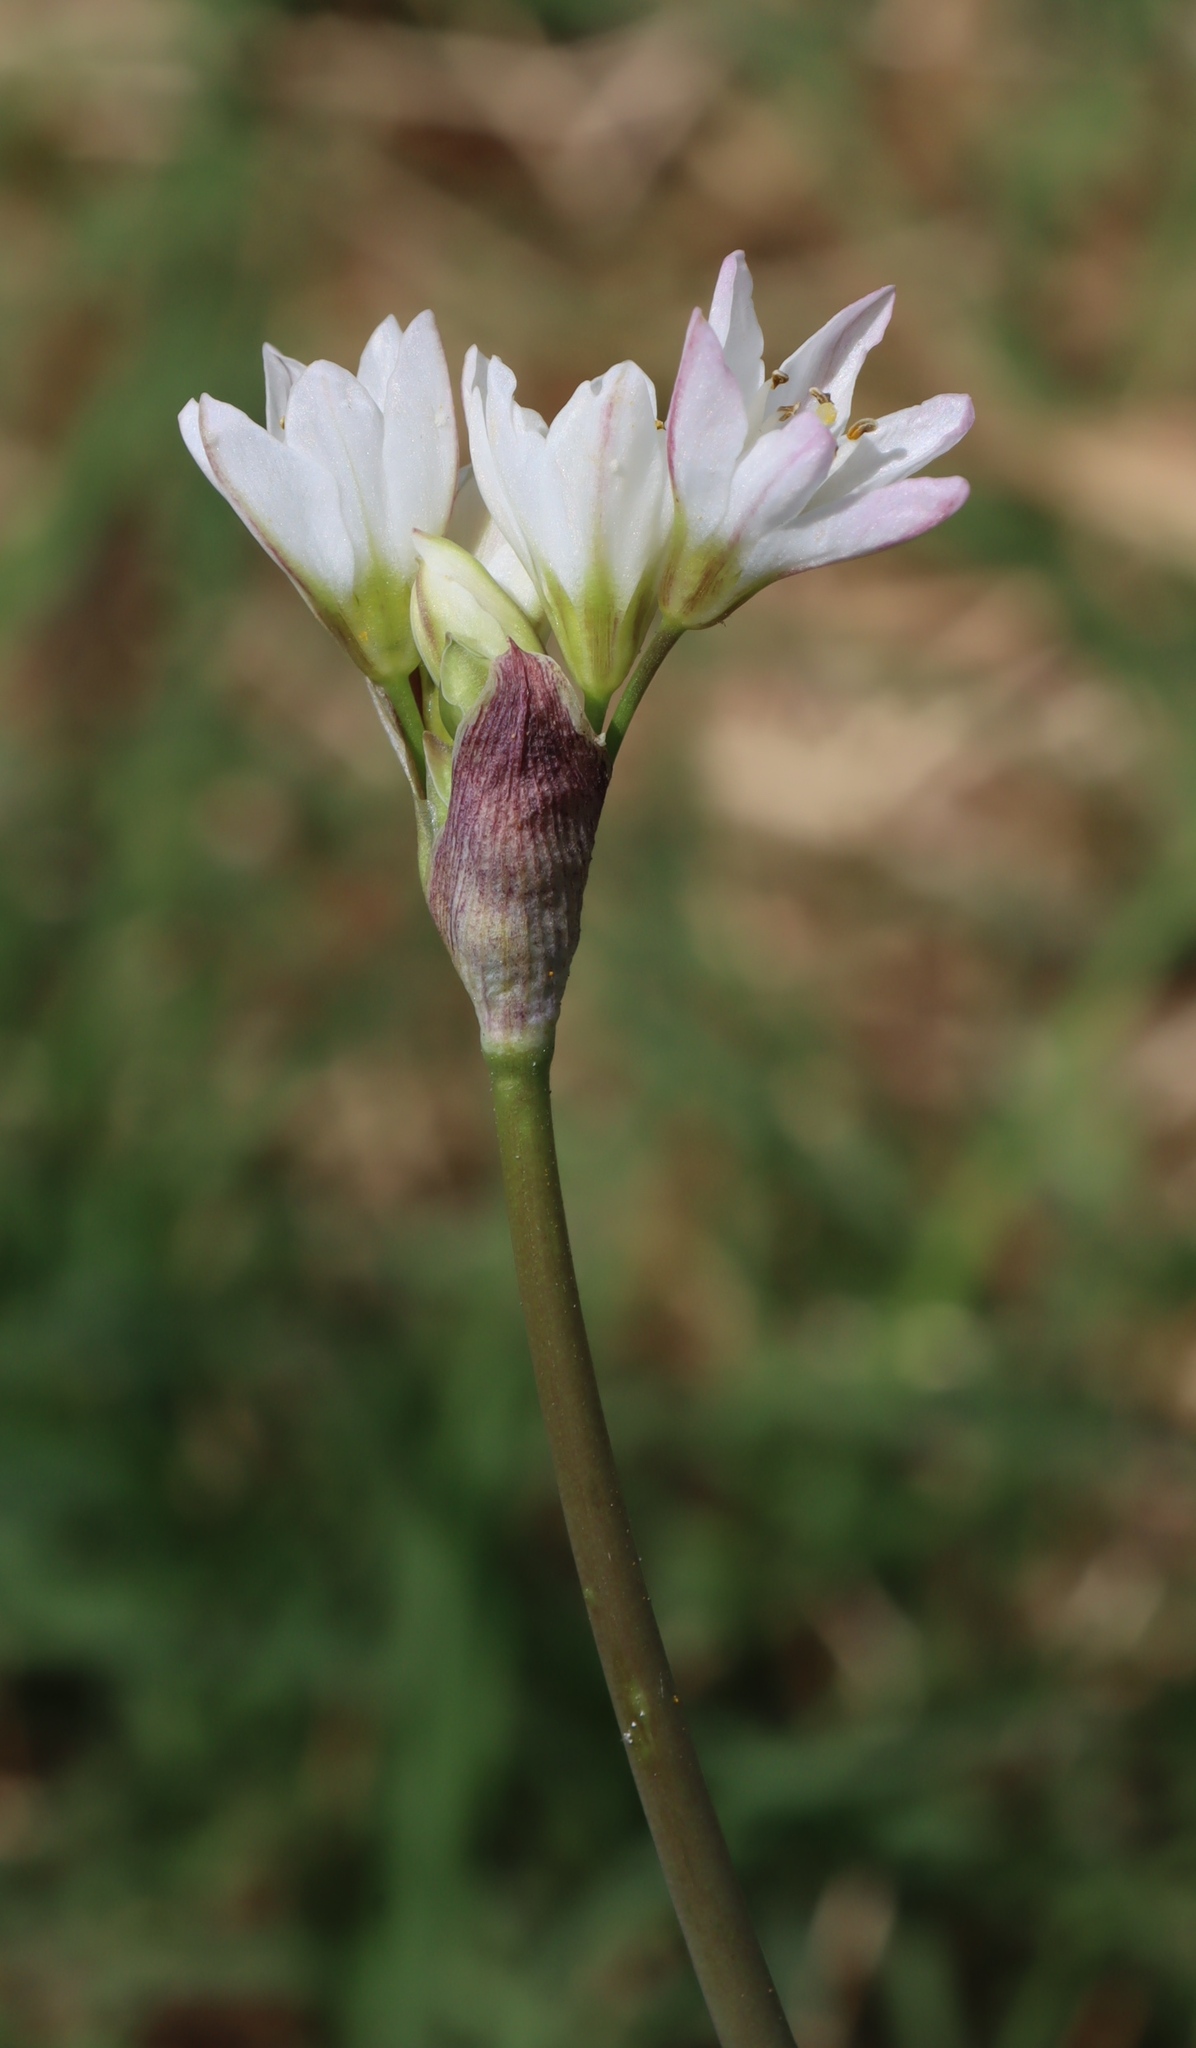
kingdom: Plantae
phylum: Tracheophyta
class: Liliopsida
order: Asparagales
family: Amaryllidaceae
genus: Nothoscordum
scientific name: Nothoscordum gracile
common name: Slender false garlic
